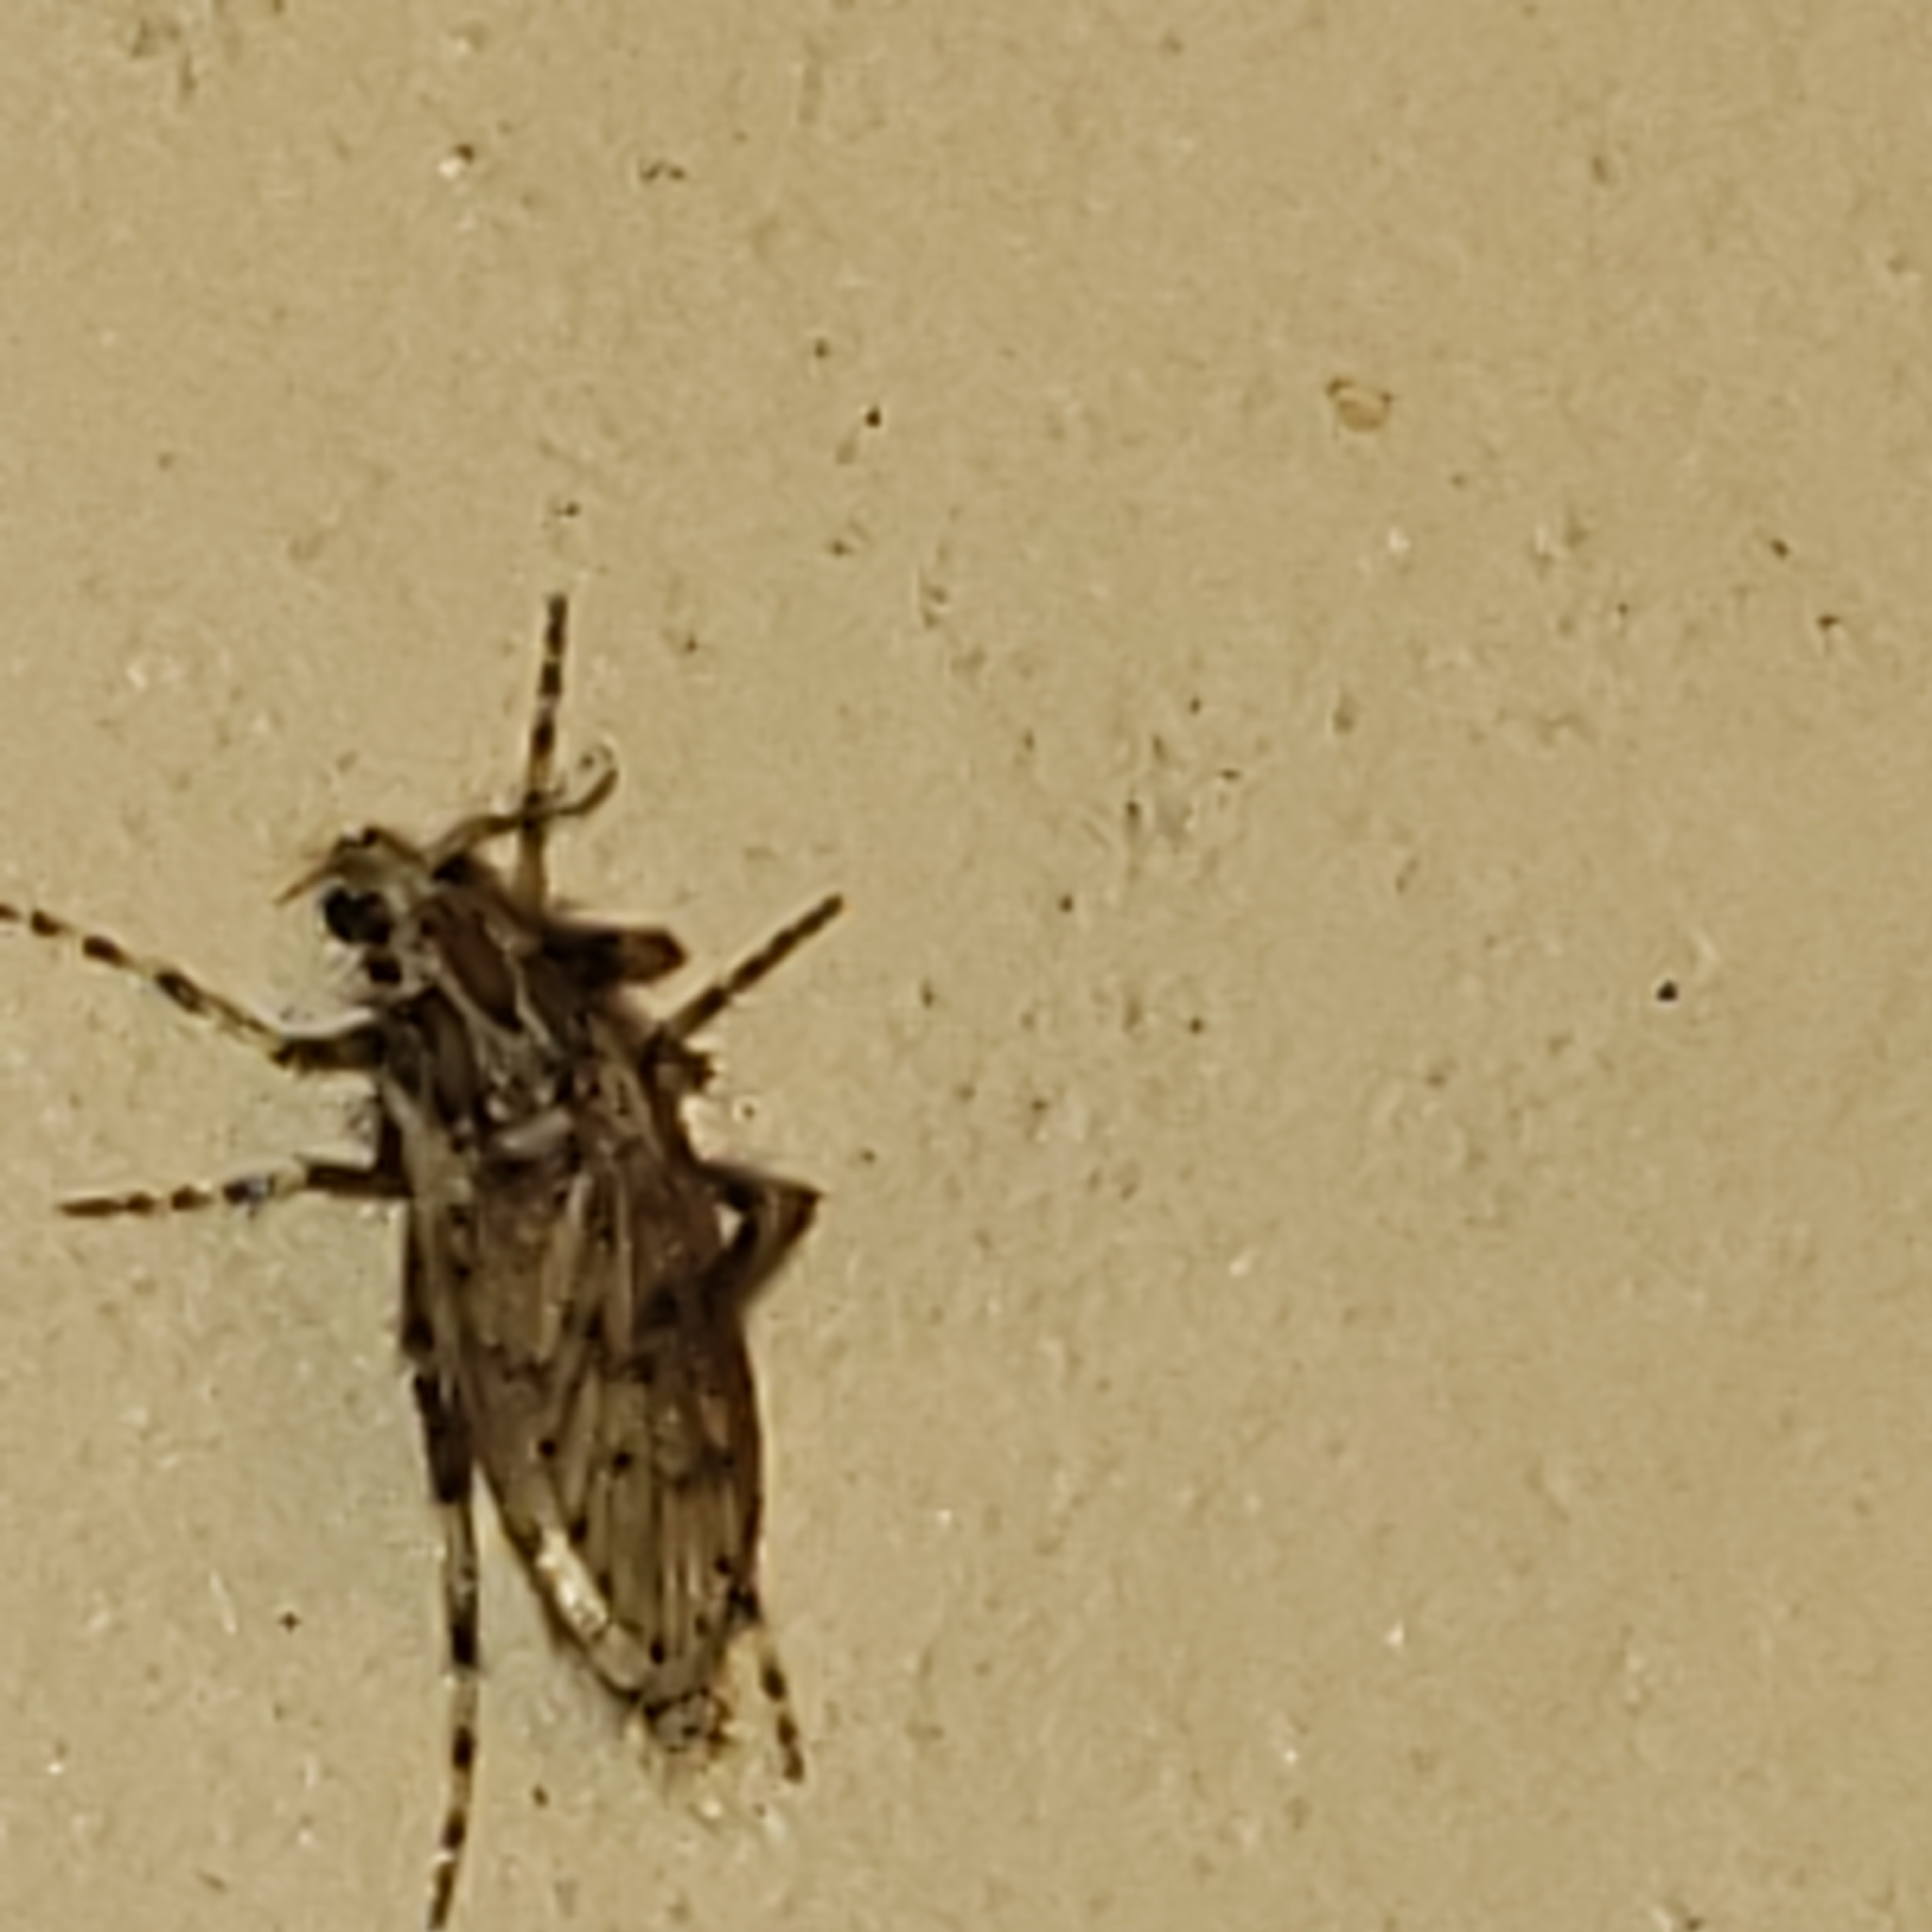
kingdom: Animalia
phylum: Arthropoda
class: Insecta
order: Diptera
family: Chaoboridae
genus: Chaoborus
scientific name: Chaoborus punctipennis
